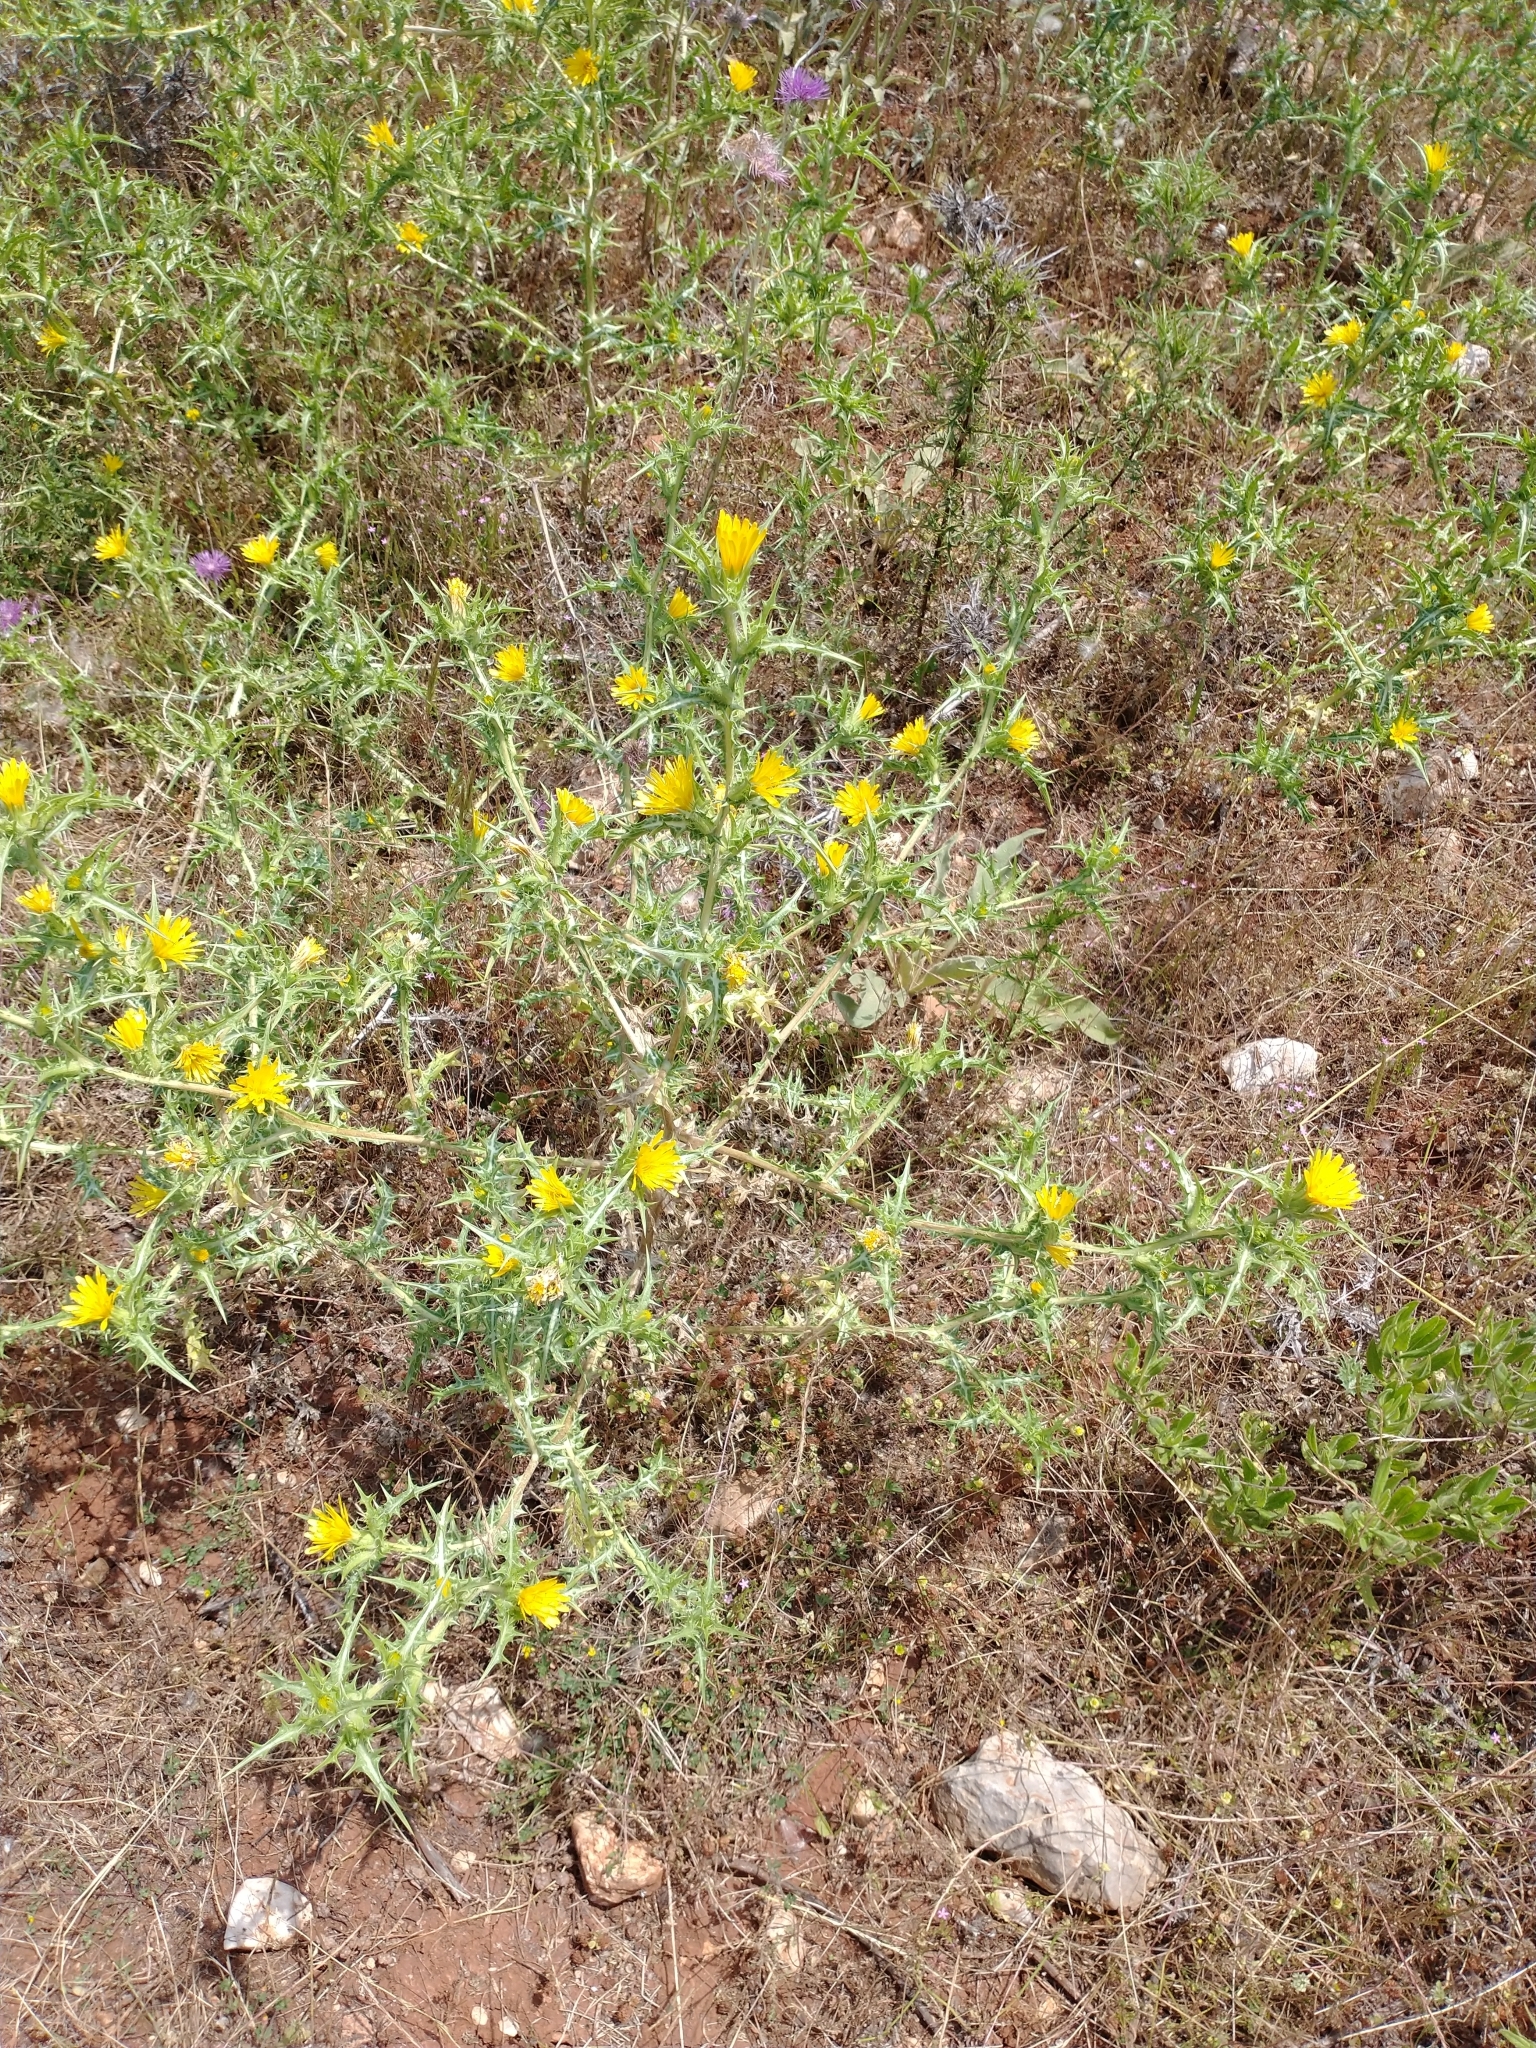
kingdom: Plantae
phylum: Tracheophyta
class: Magnoliopsida
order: Asterales
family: Asteraceae
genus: Scolymus
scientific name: Scolymus hispanicus
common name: Golden thistle
